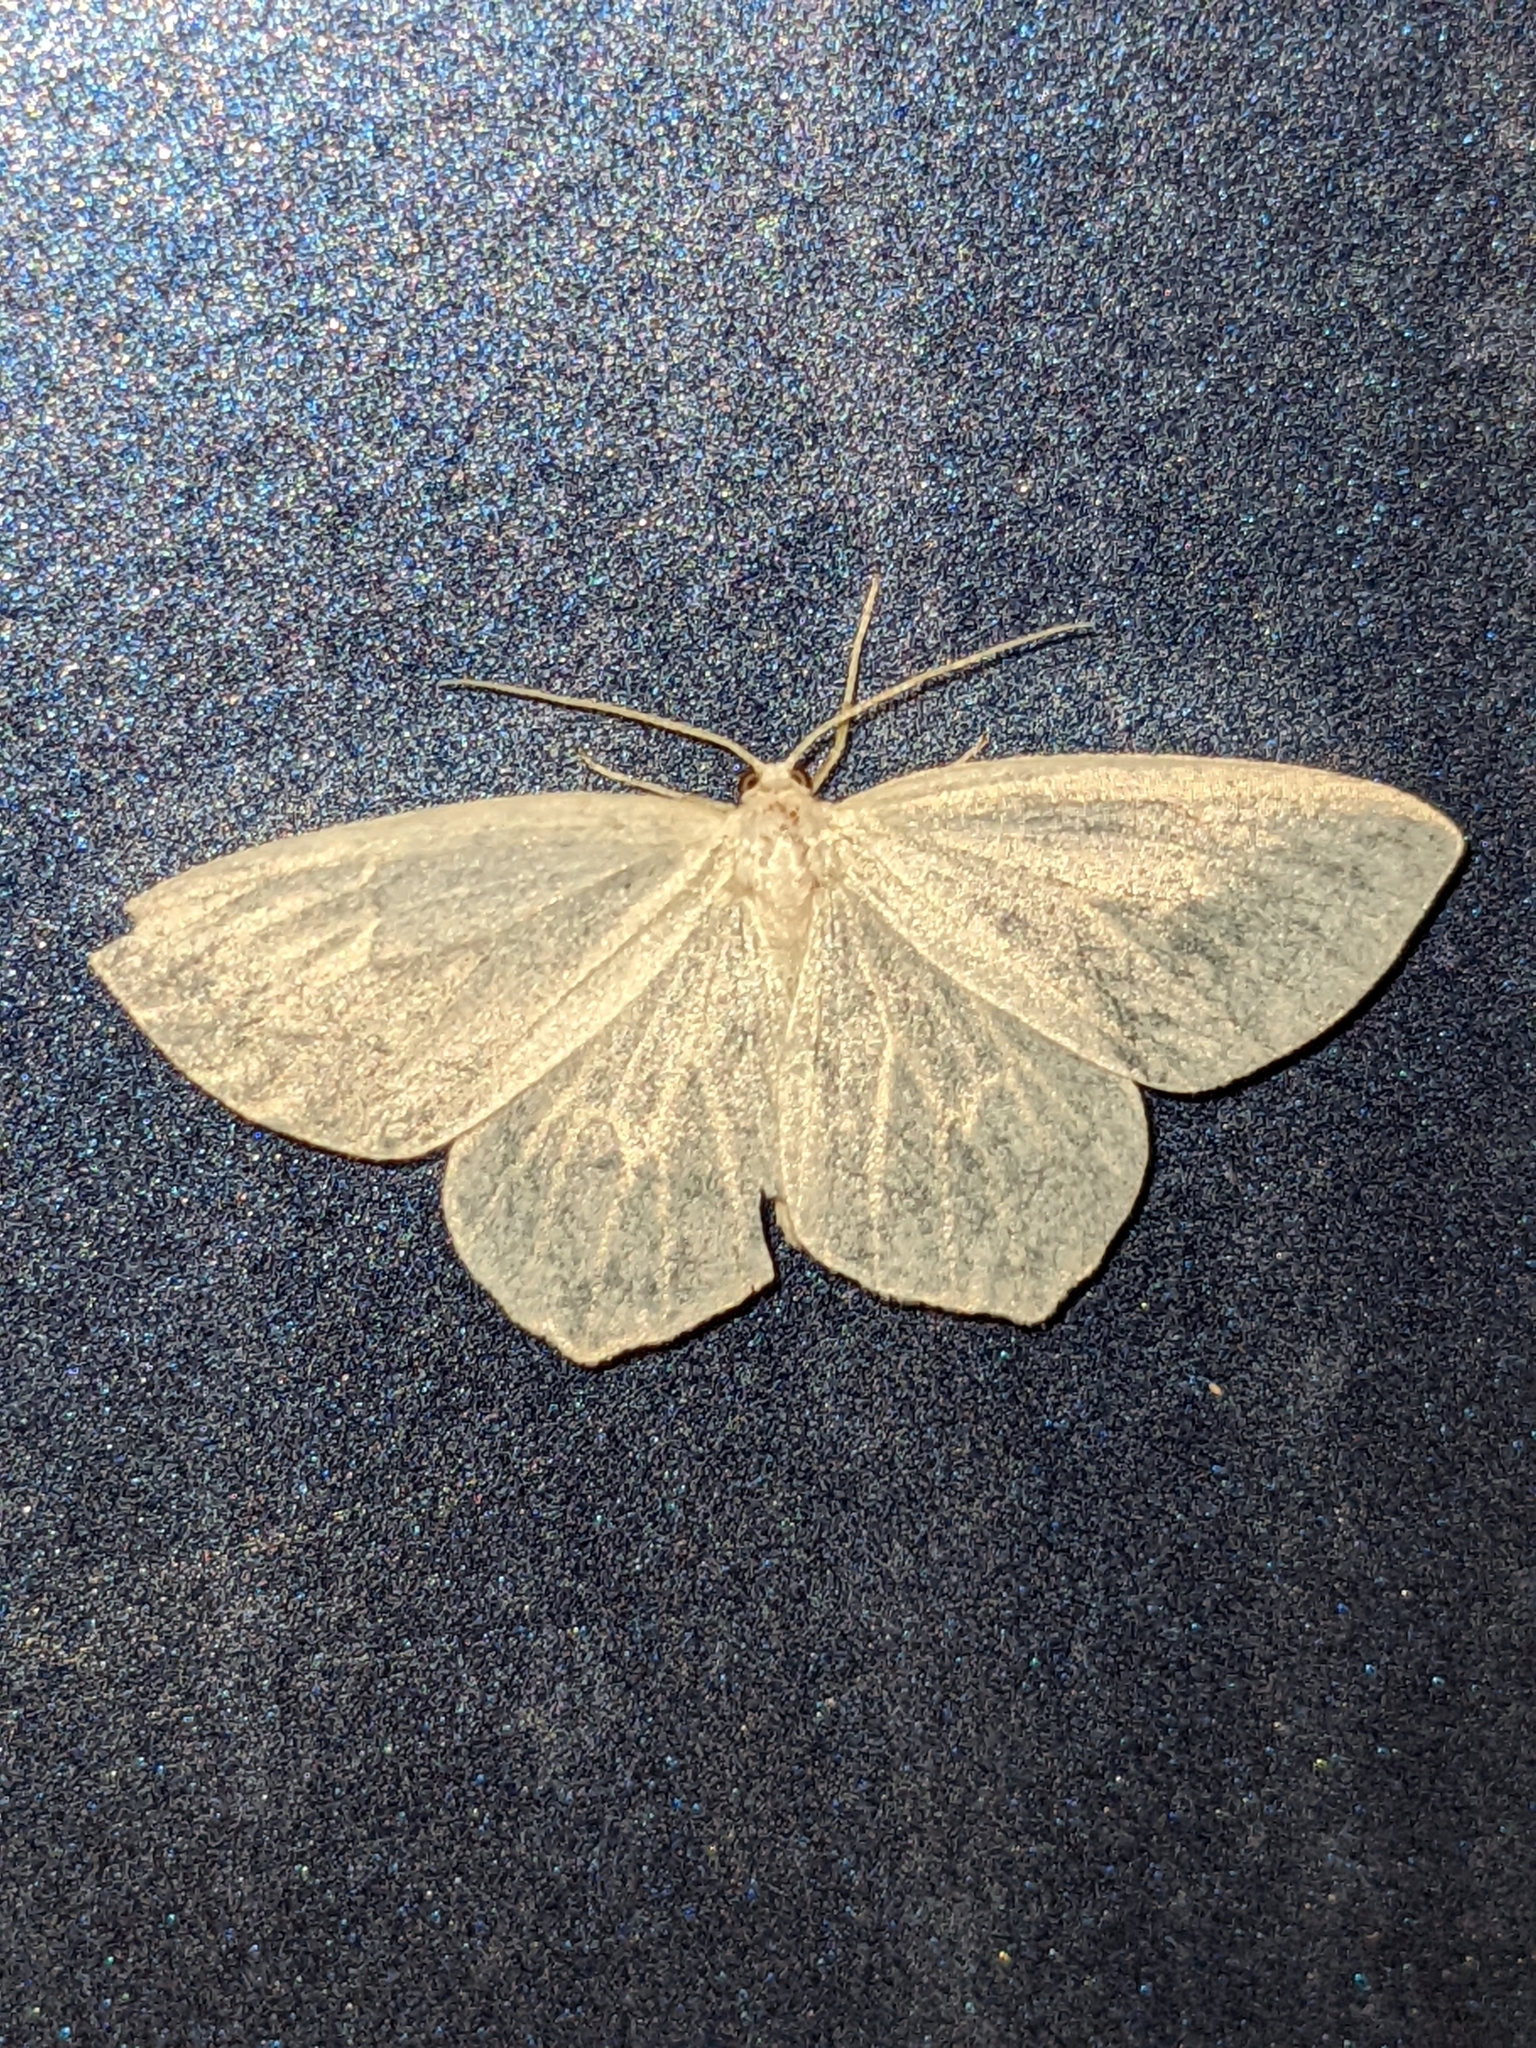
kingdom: Animalia
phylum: Arthropoda
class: Insecta
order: Lepidoptera
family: Geometridae
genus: Eugonobapta
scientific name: Eugonobapta nivosaria
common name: Snowy geometer
